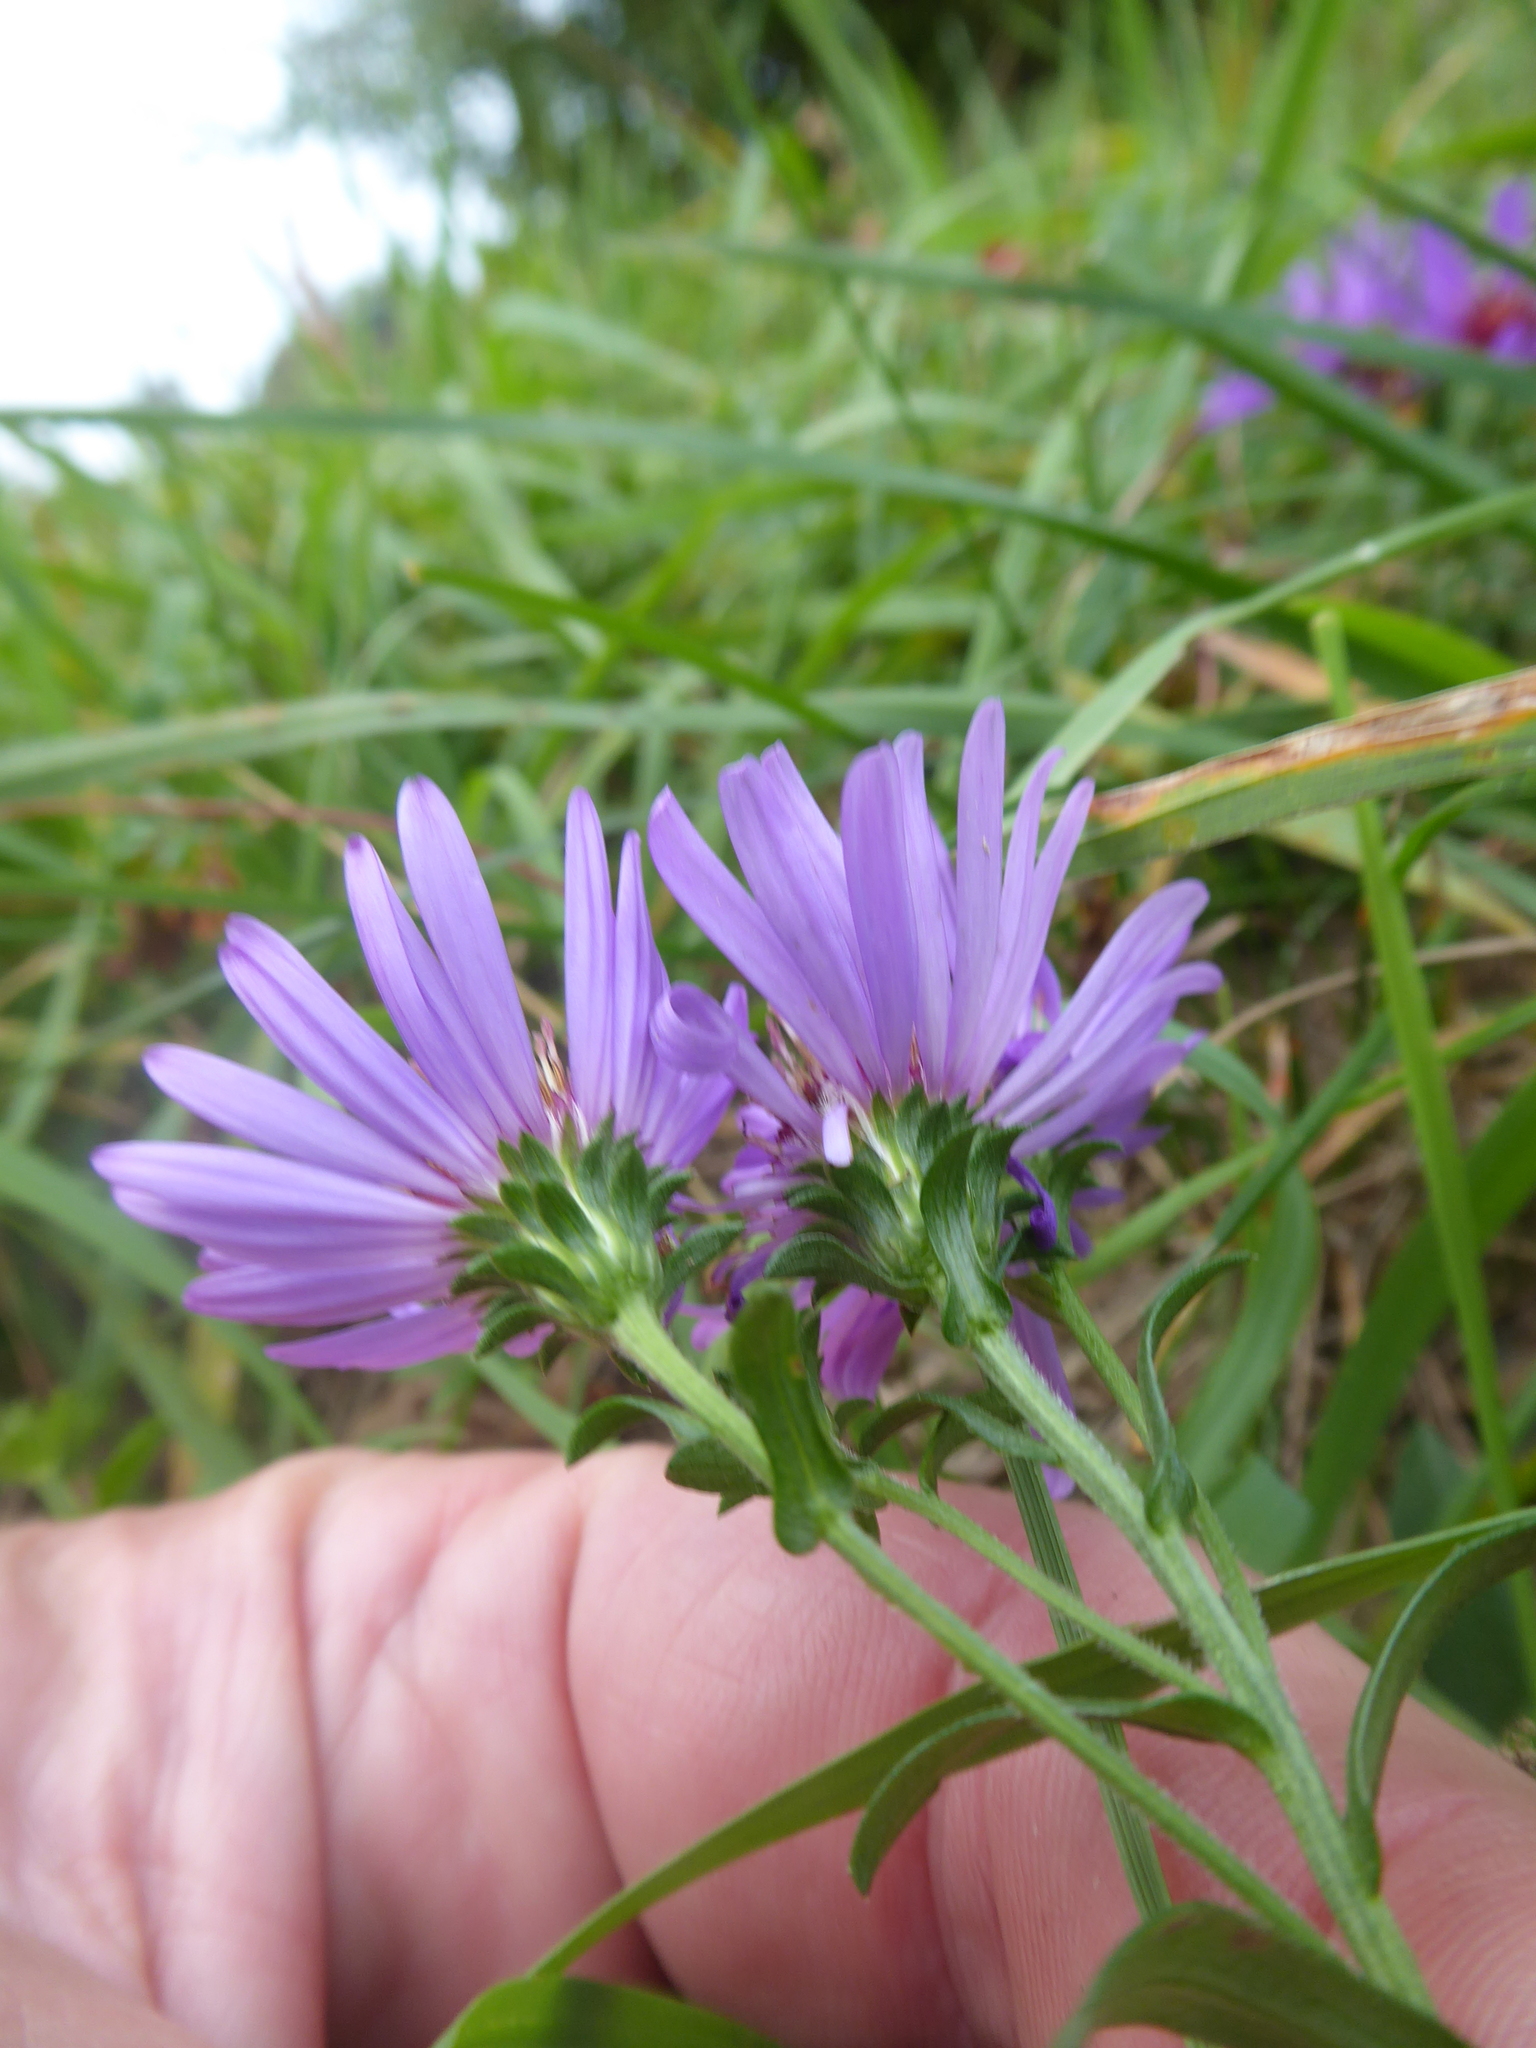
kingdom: Plantae
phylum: Tracheophyta
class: Magnoliopsida
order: Asterales
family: Asteraceae
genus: Symphyotrichum
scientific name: Symphyotrichum novae-angliae
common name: Michaelmas daisy
